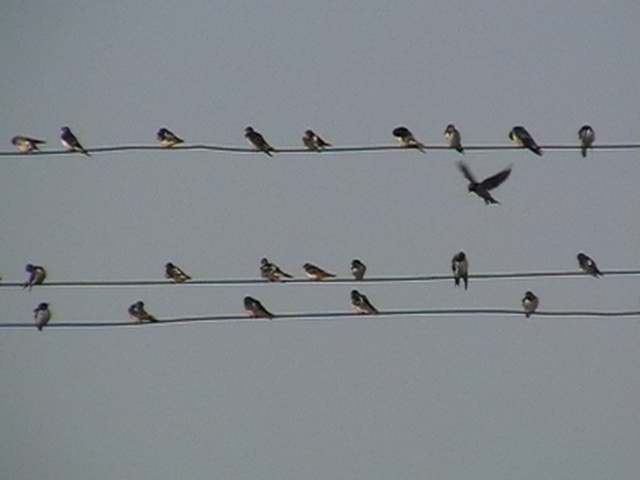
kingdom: Animalia
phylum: Chordata
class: Aves
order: Passeriformes
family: Hirundinidae
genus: Hirundo
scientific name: Hirundo rustica
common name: Barn swallow
